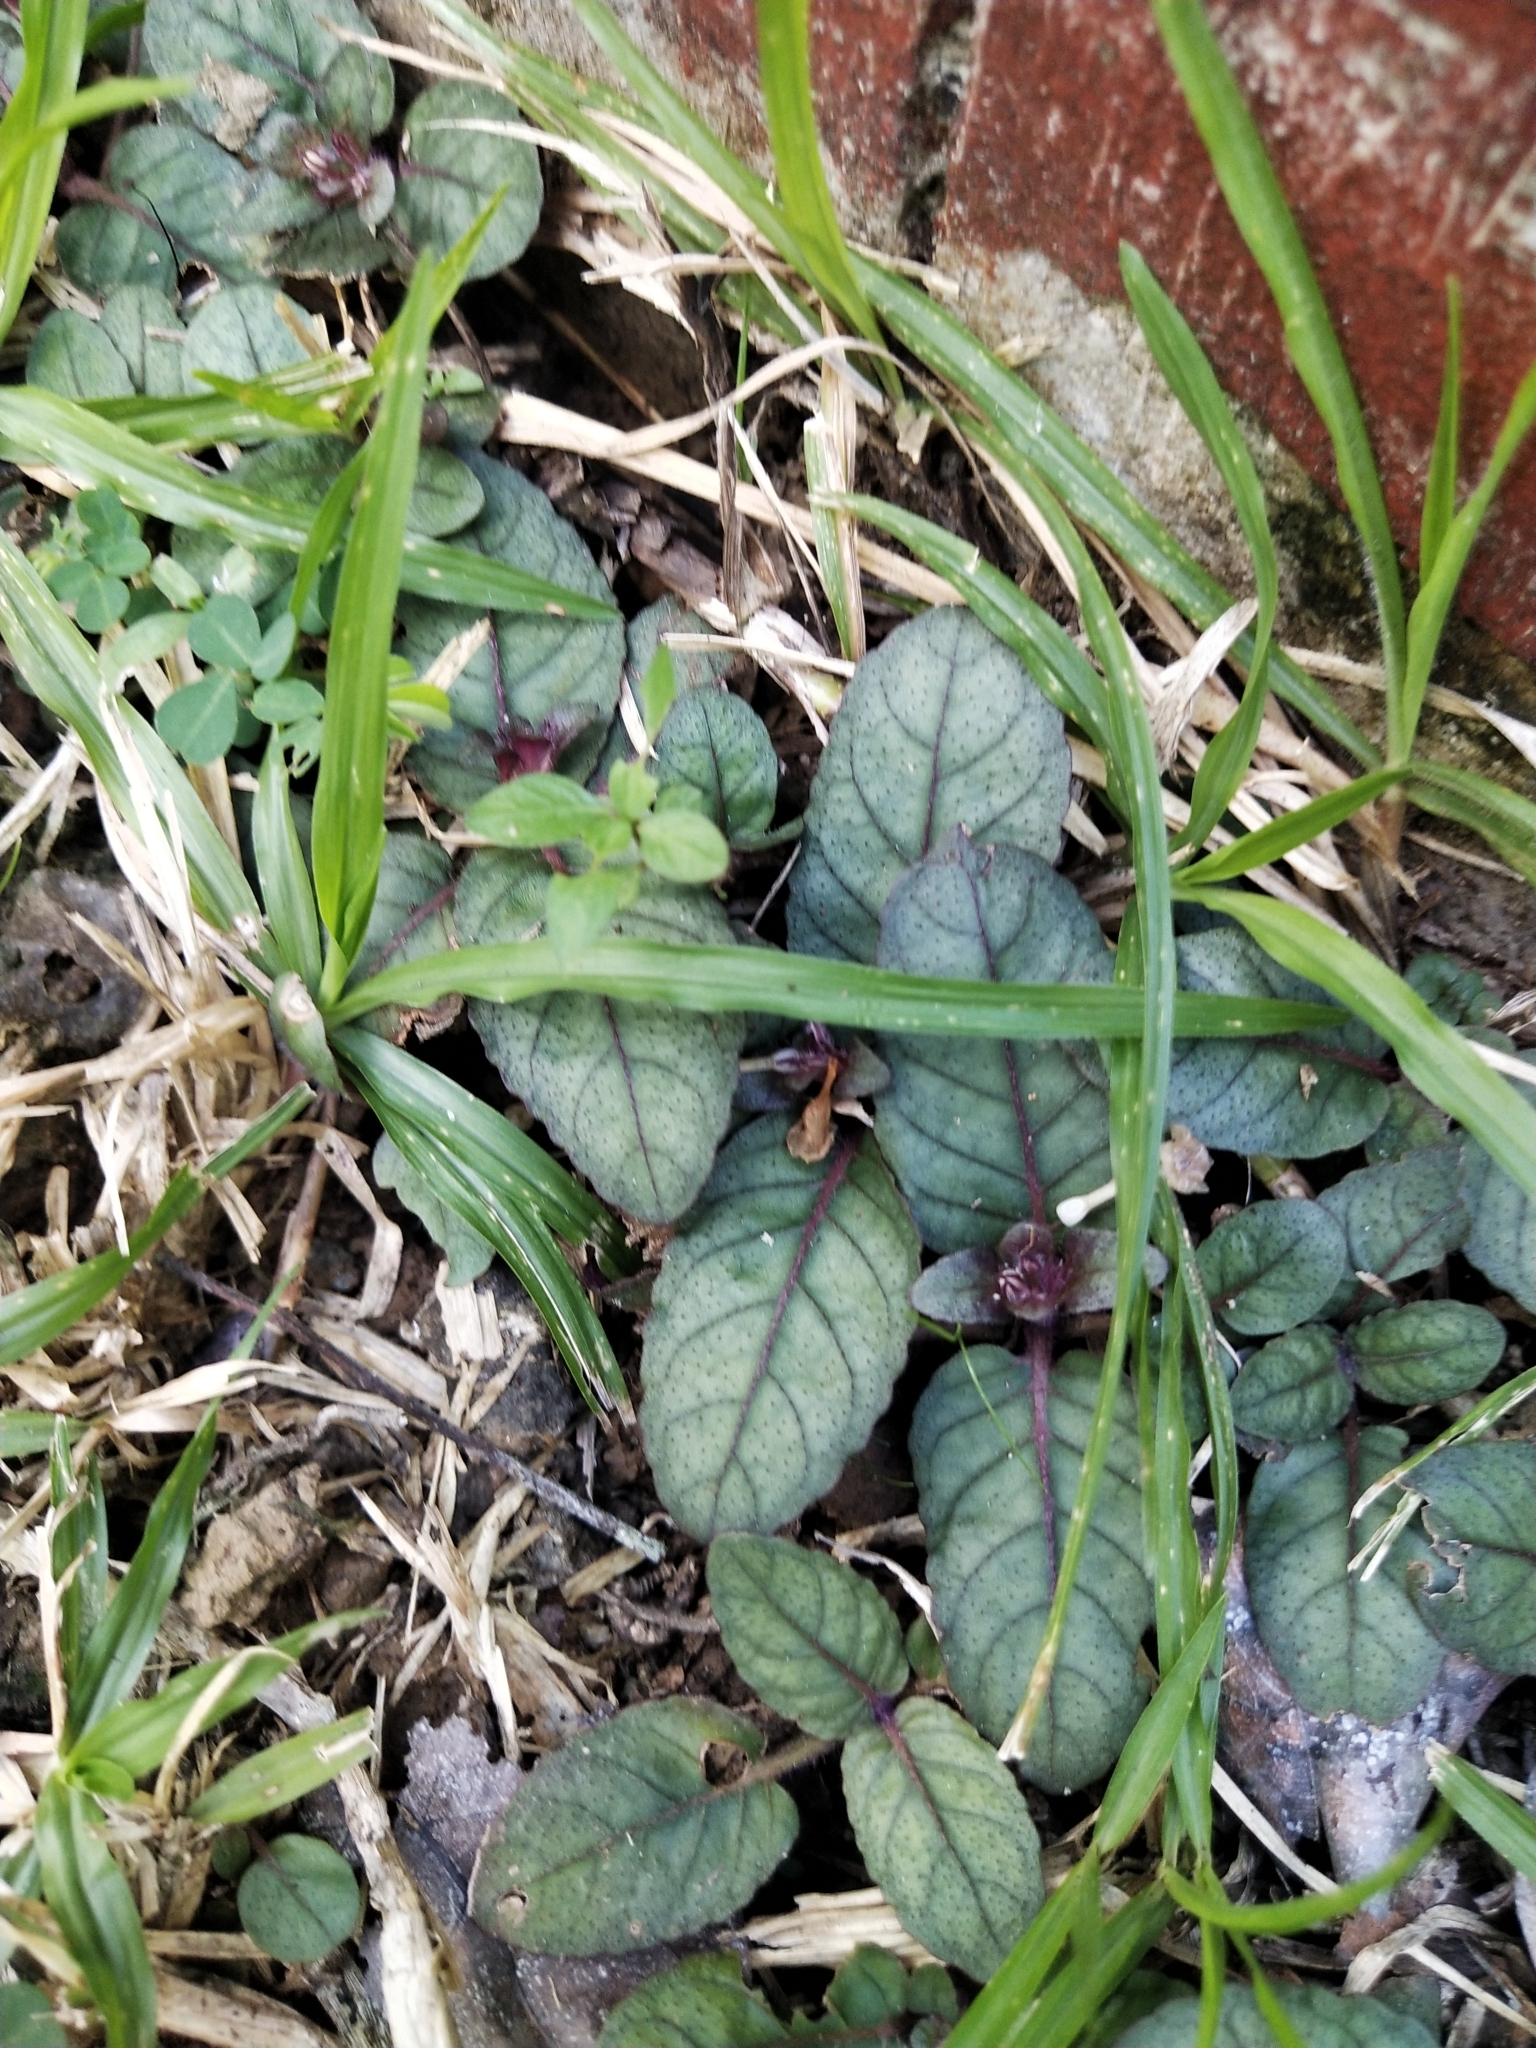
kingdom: Plantae
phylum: Tracheophyta
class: Magnoliopsida
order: Lamiales
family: Acanthaceae
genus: Strobilanthes
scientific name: Strobilanthes reptans
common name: Acanthaceae
